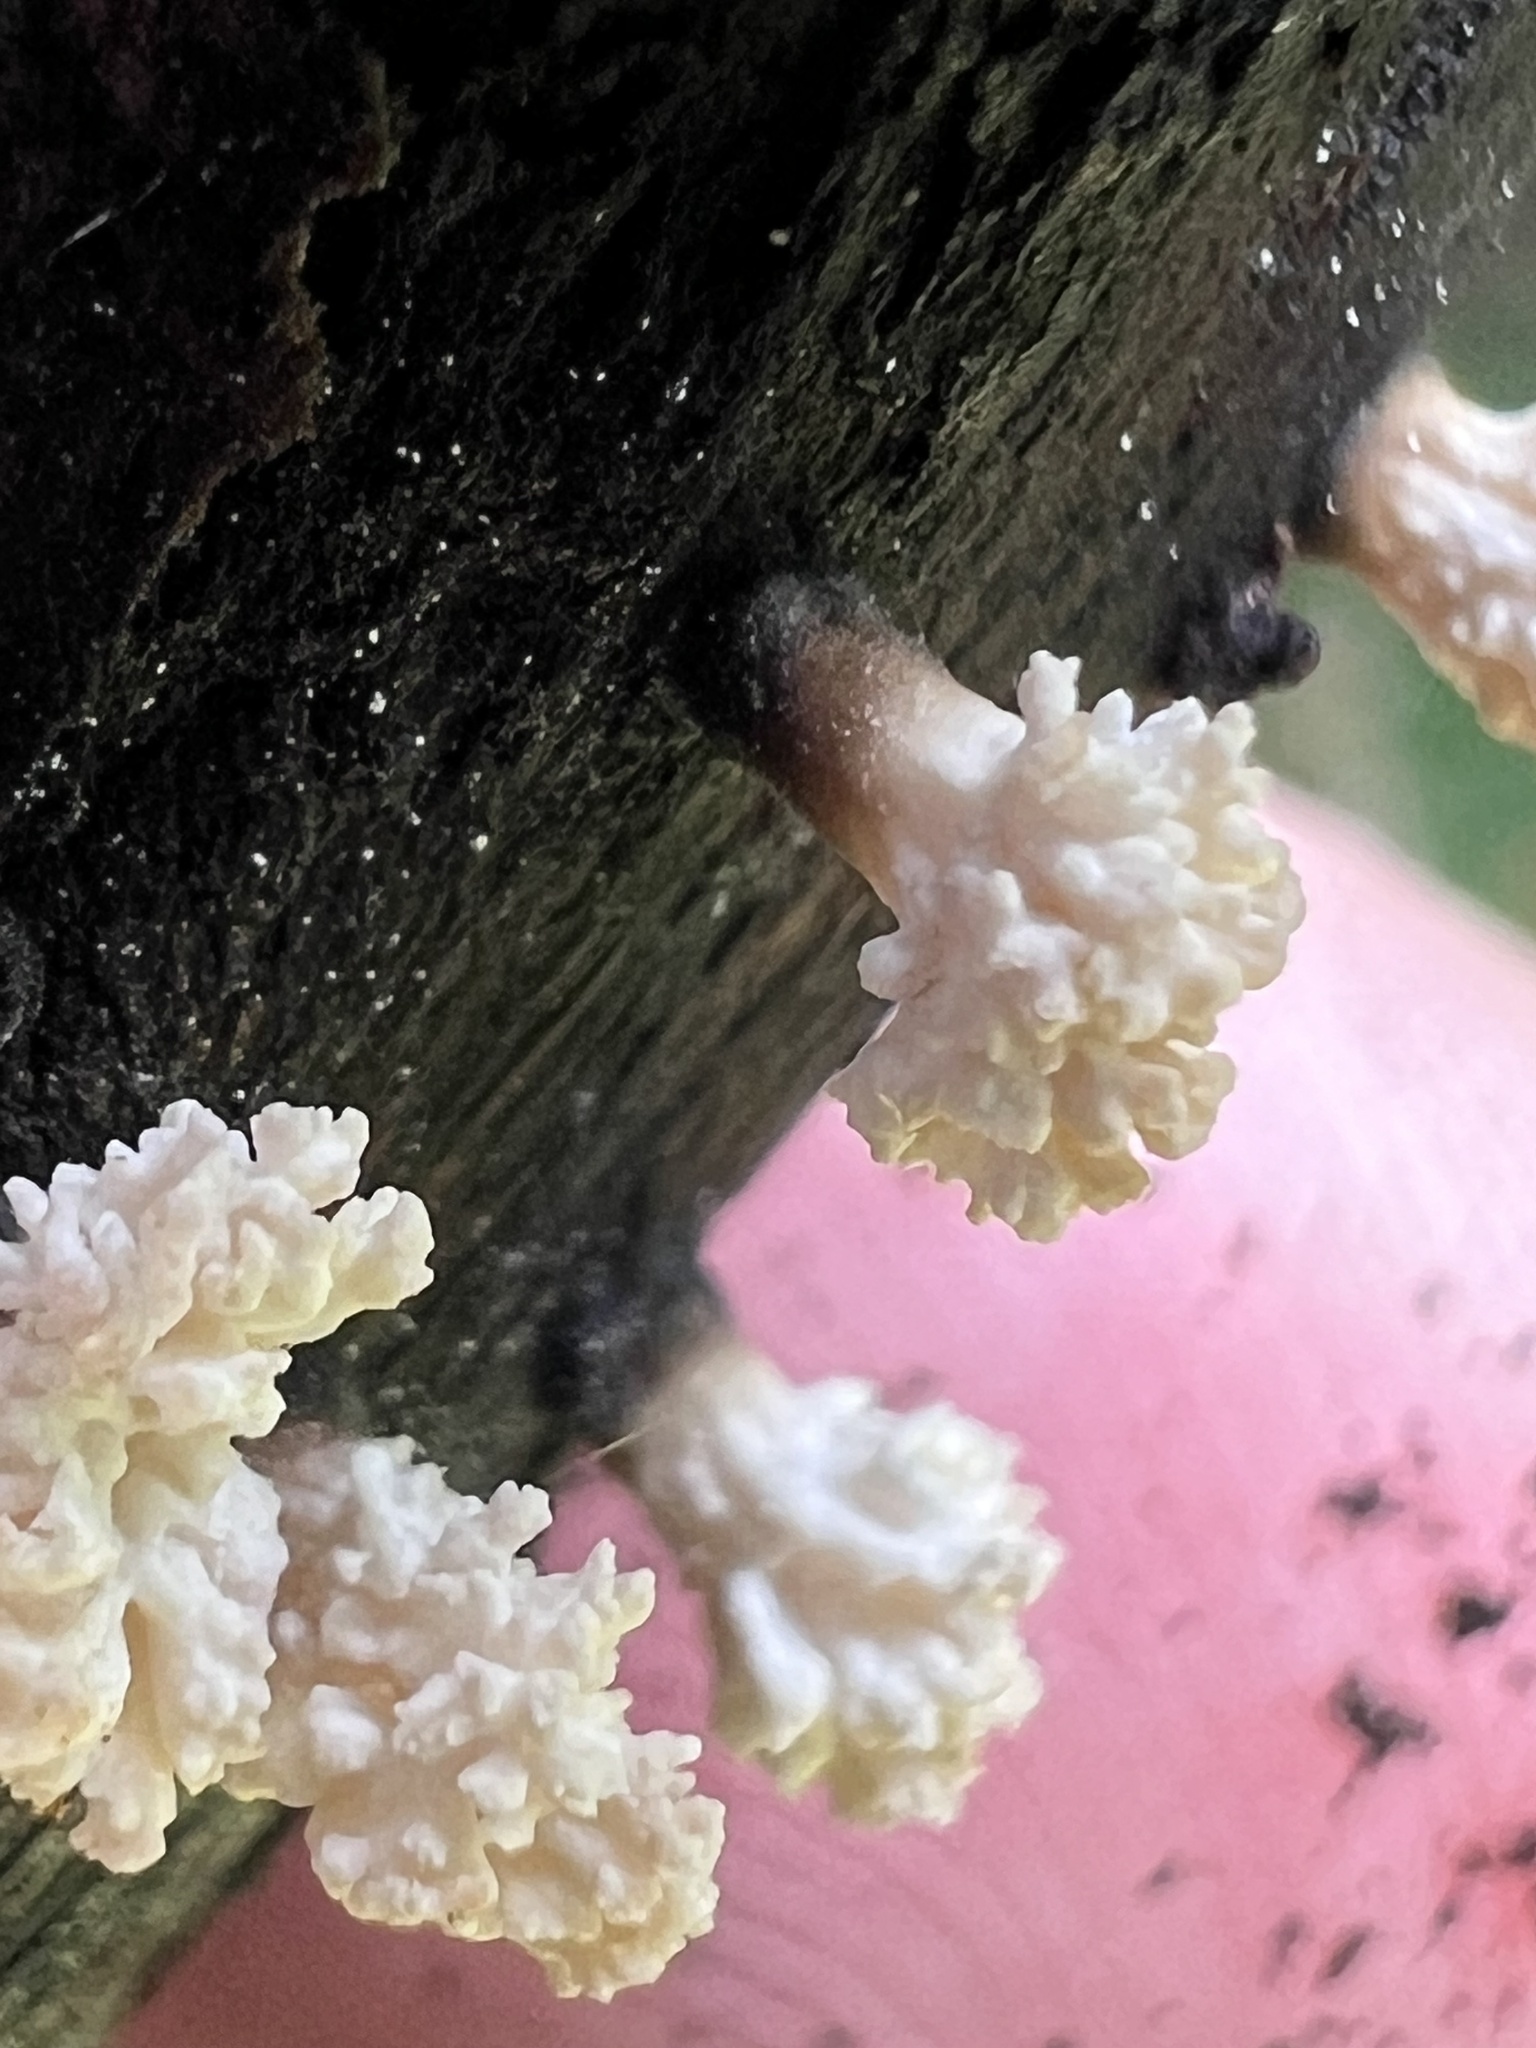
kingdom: Fungi
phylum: Ascomycota
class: Sordariomycetes
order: Xylariales
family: Xylariaceae
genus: Xylaria
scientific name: Xylaria cubensis
